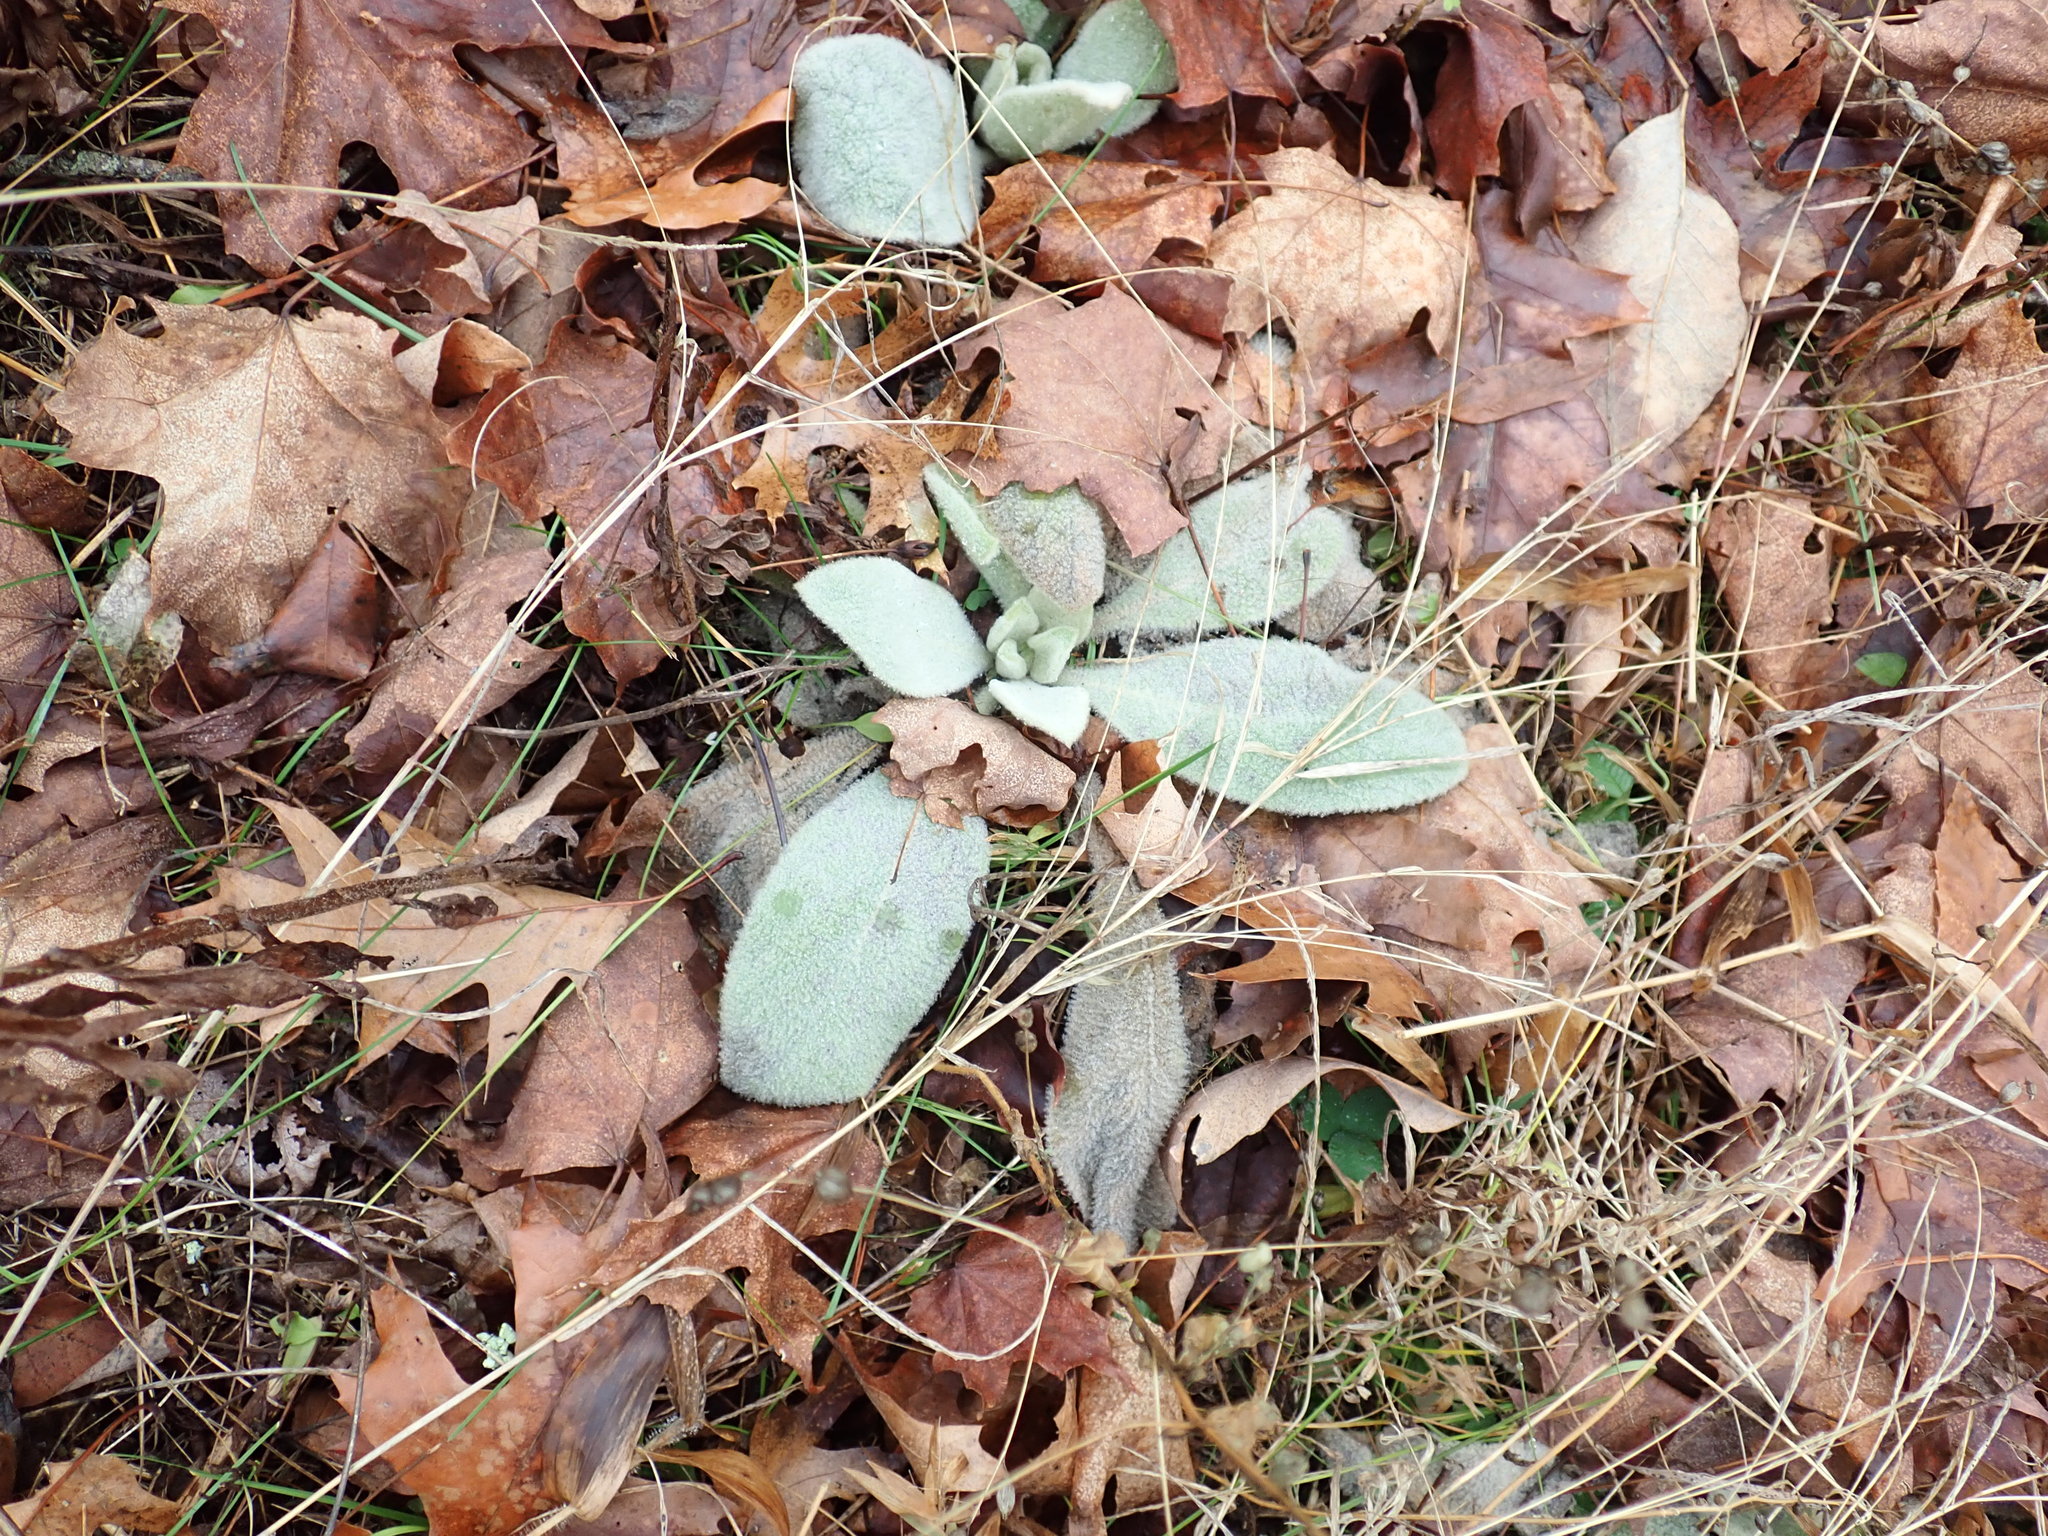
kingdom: Plantae
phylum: Tracheophyta
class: Magnoliopsida
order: Lamiales
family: Scrophulariaceae
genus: Verbascum
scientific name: Verbascum thapsus
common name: Common mullein
